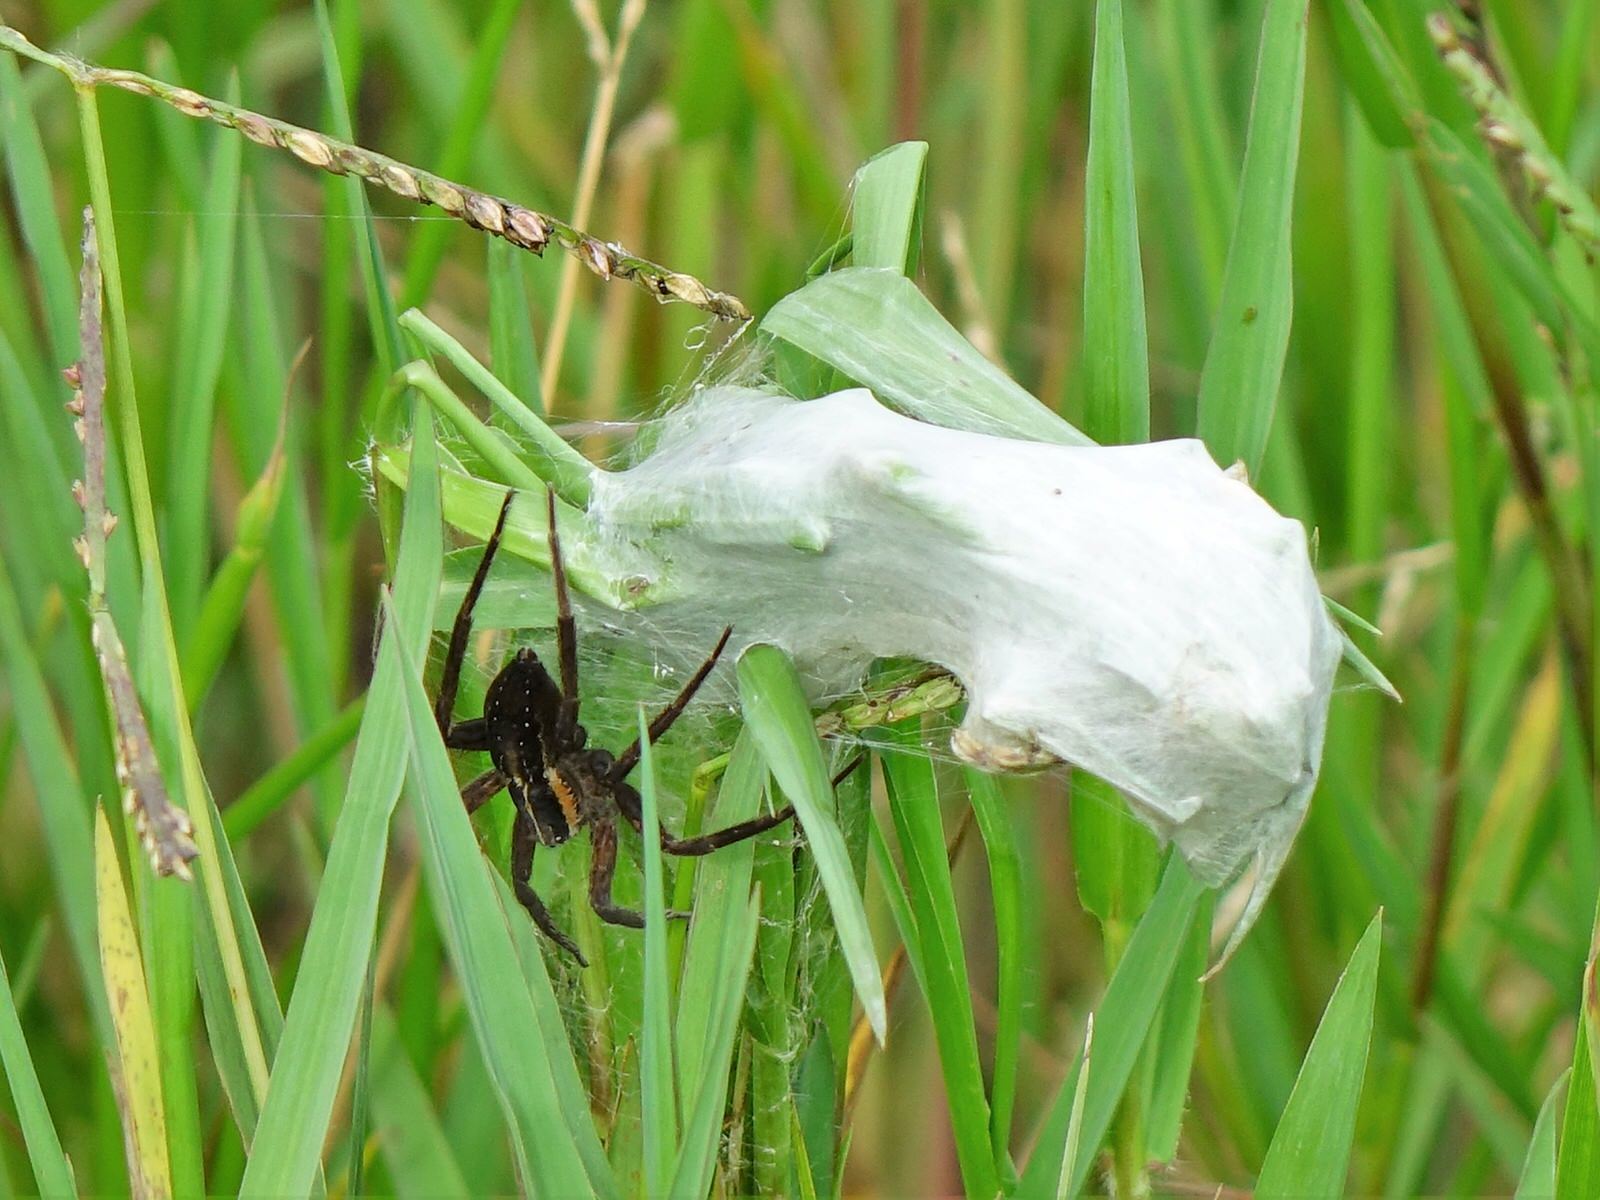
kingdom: Animalia
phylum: Arthropoda
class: Arachnida
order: Araneae
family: Pisauridae
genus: Dolomedes
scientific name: Dolomedes minor
